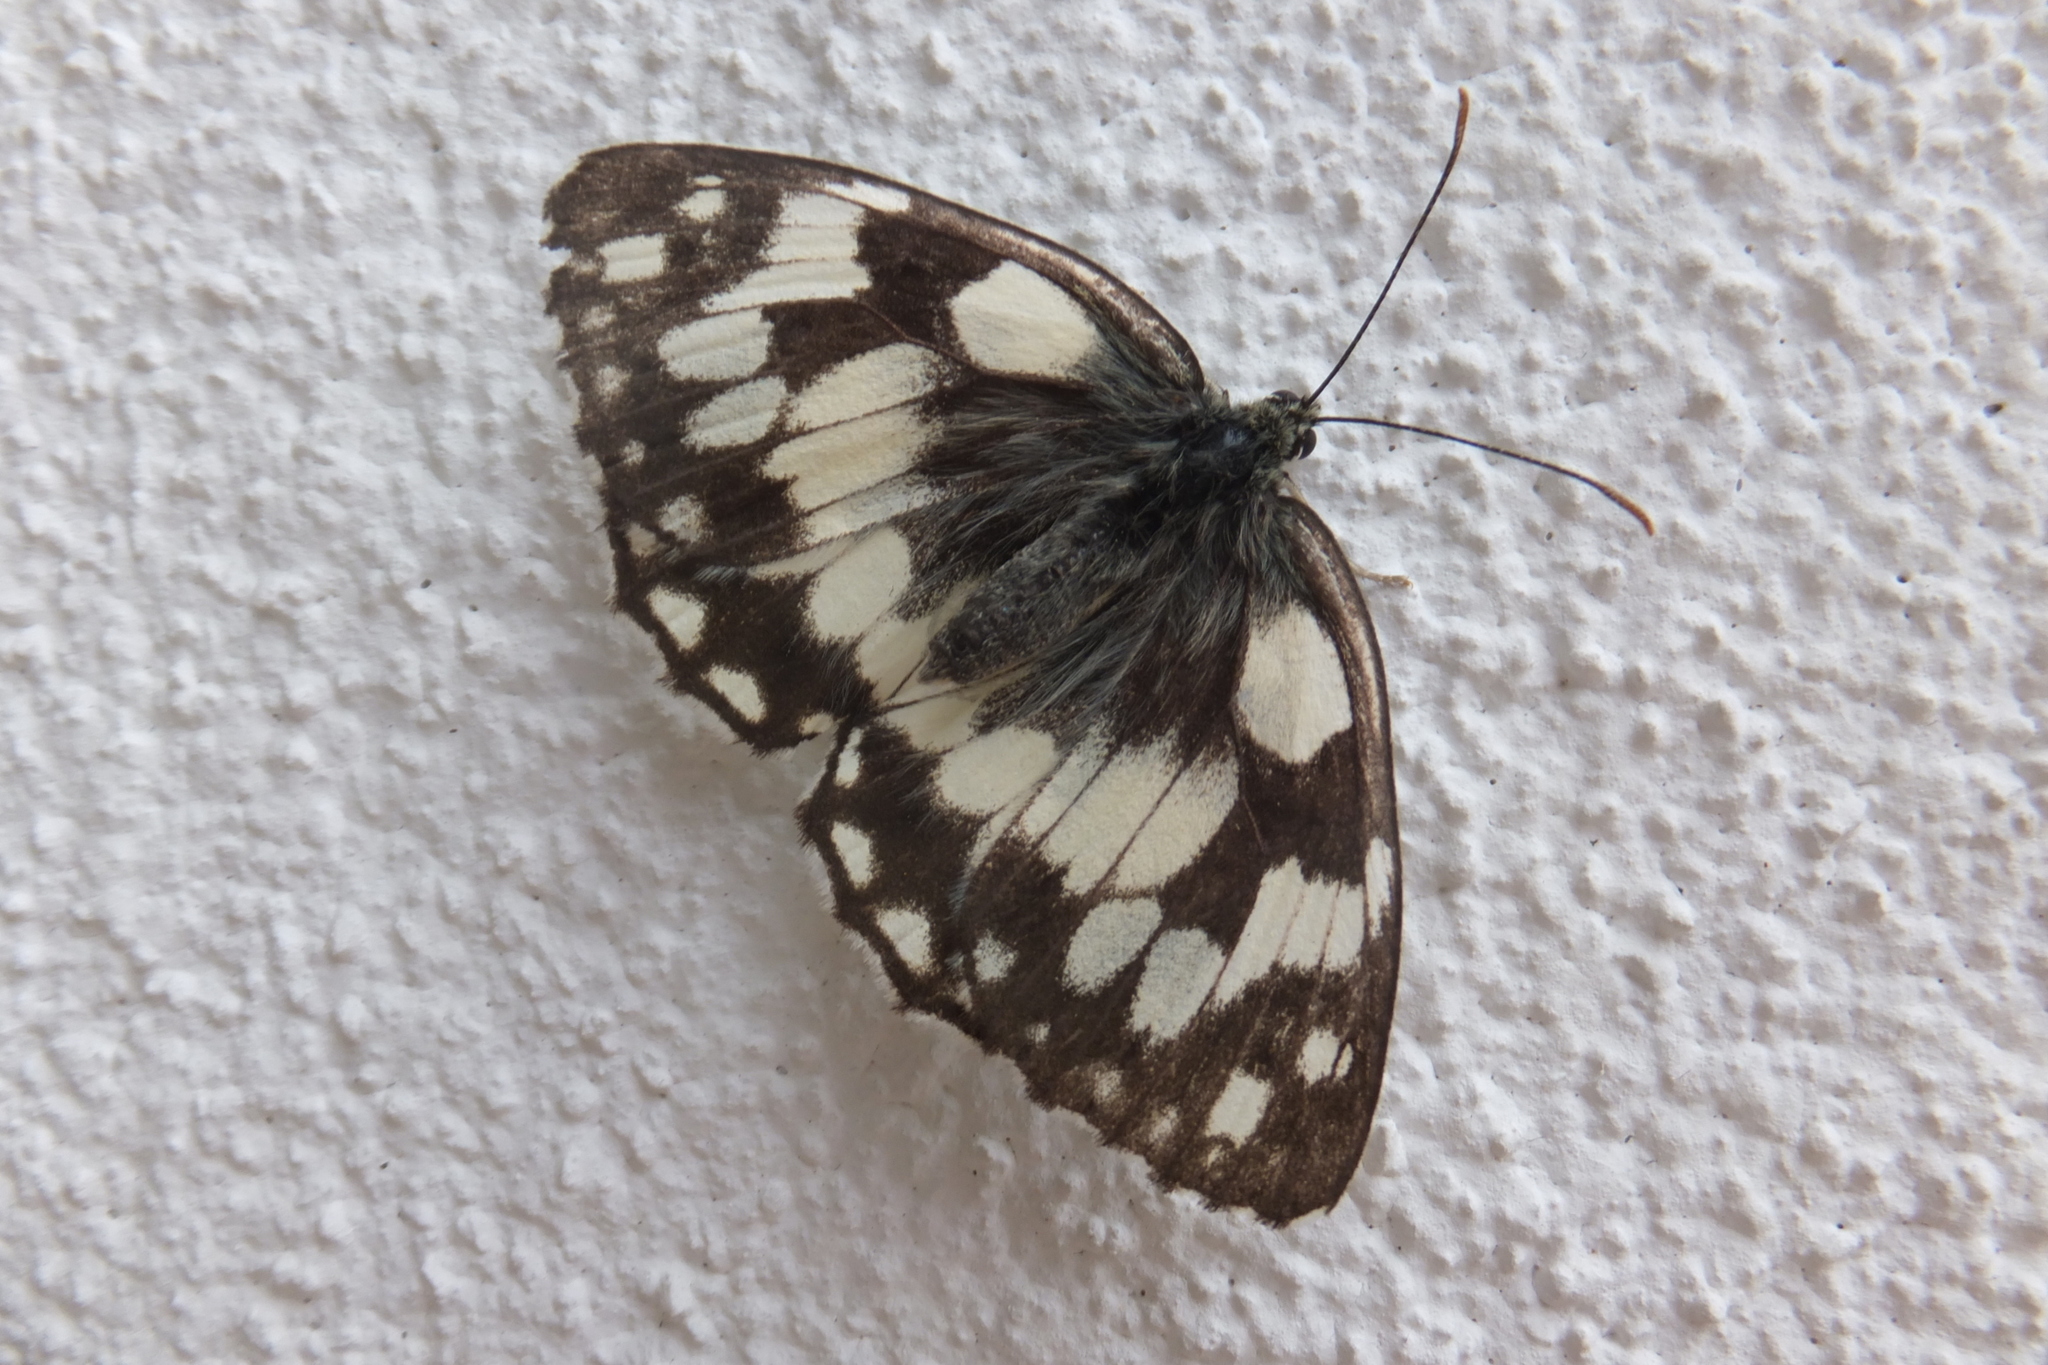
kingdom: Animalia
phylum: Arthropoda
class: Insecta
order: Lepidoptera
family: Nymphalidae
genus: Melanargia
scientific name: Melanargia galathea
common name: Marbled white
